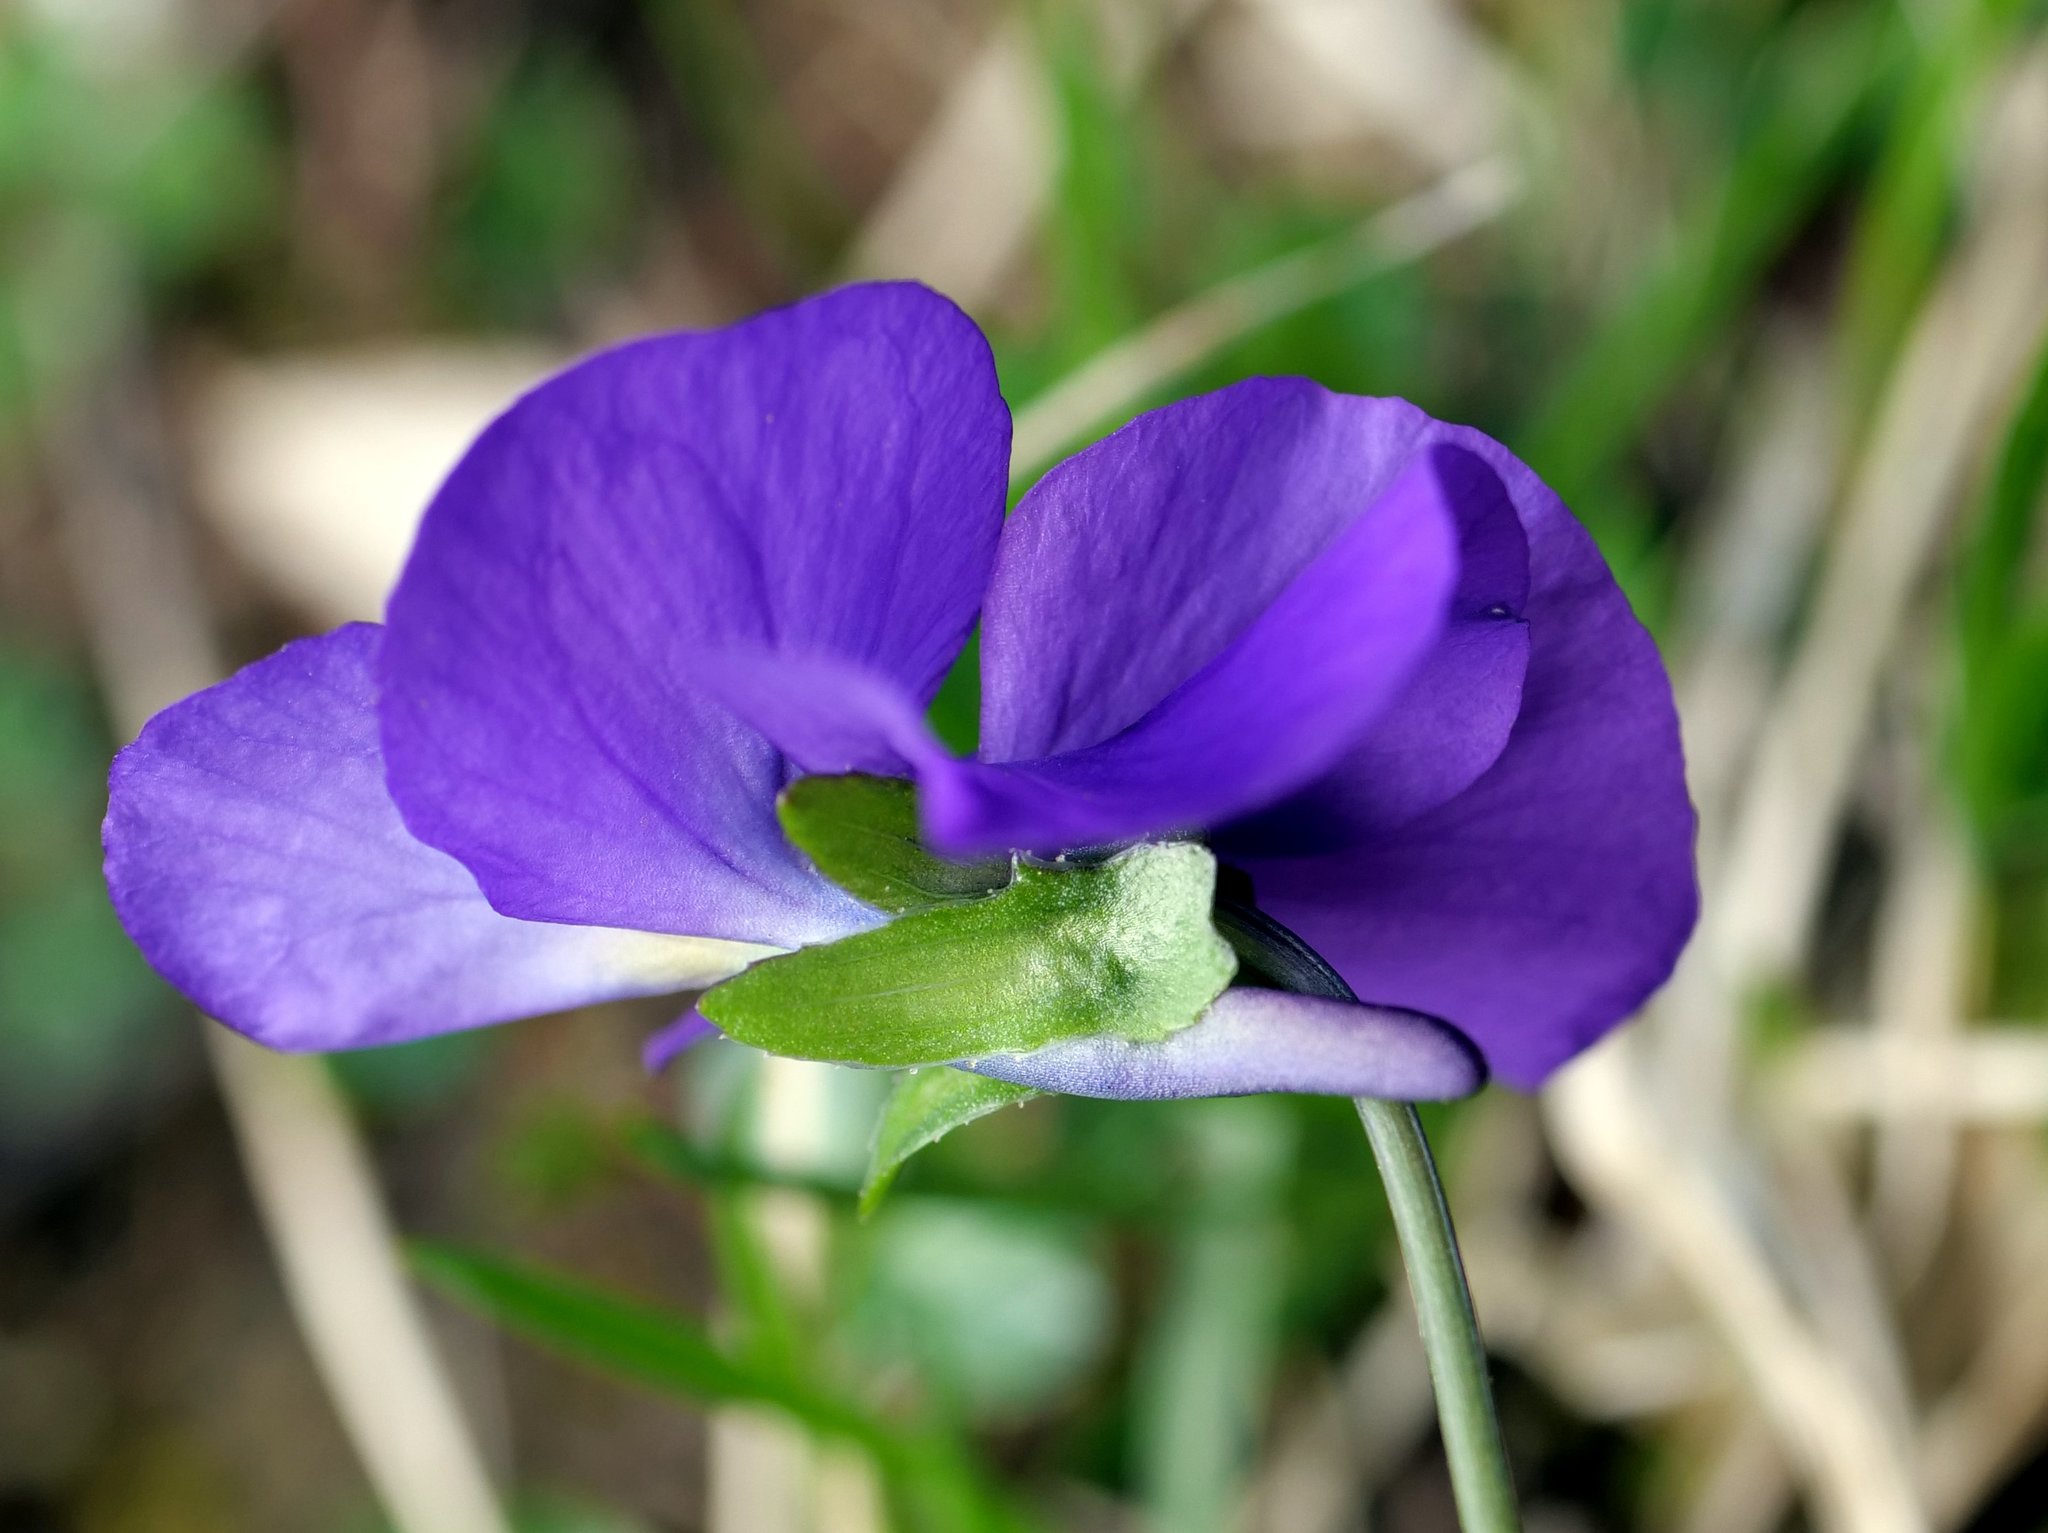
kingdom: Plantae
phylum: Tracheophyta
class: Magnoliopsida
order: Malpighiales
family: Violaceae
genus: Viola
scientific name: Viola calcarata
